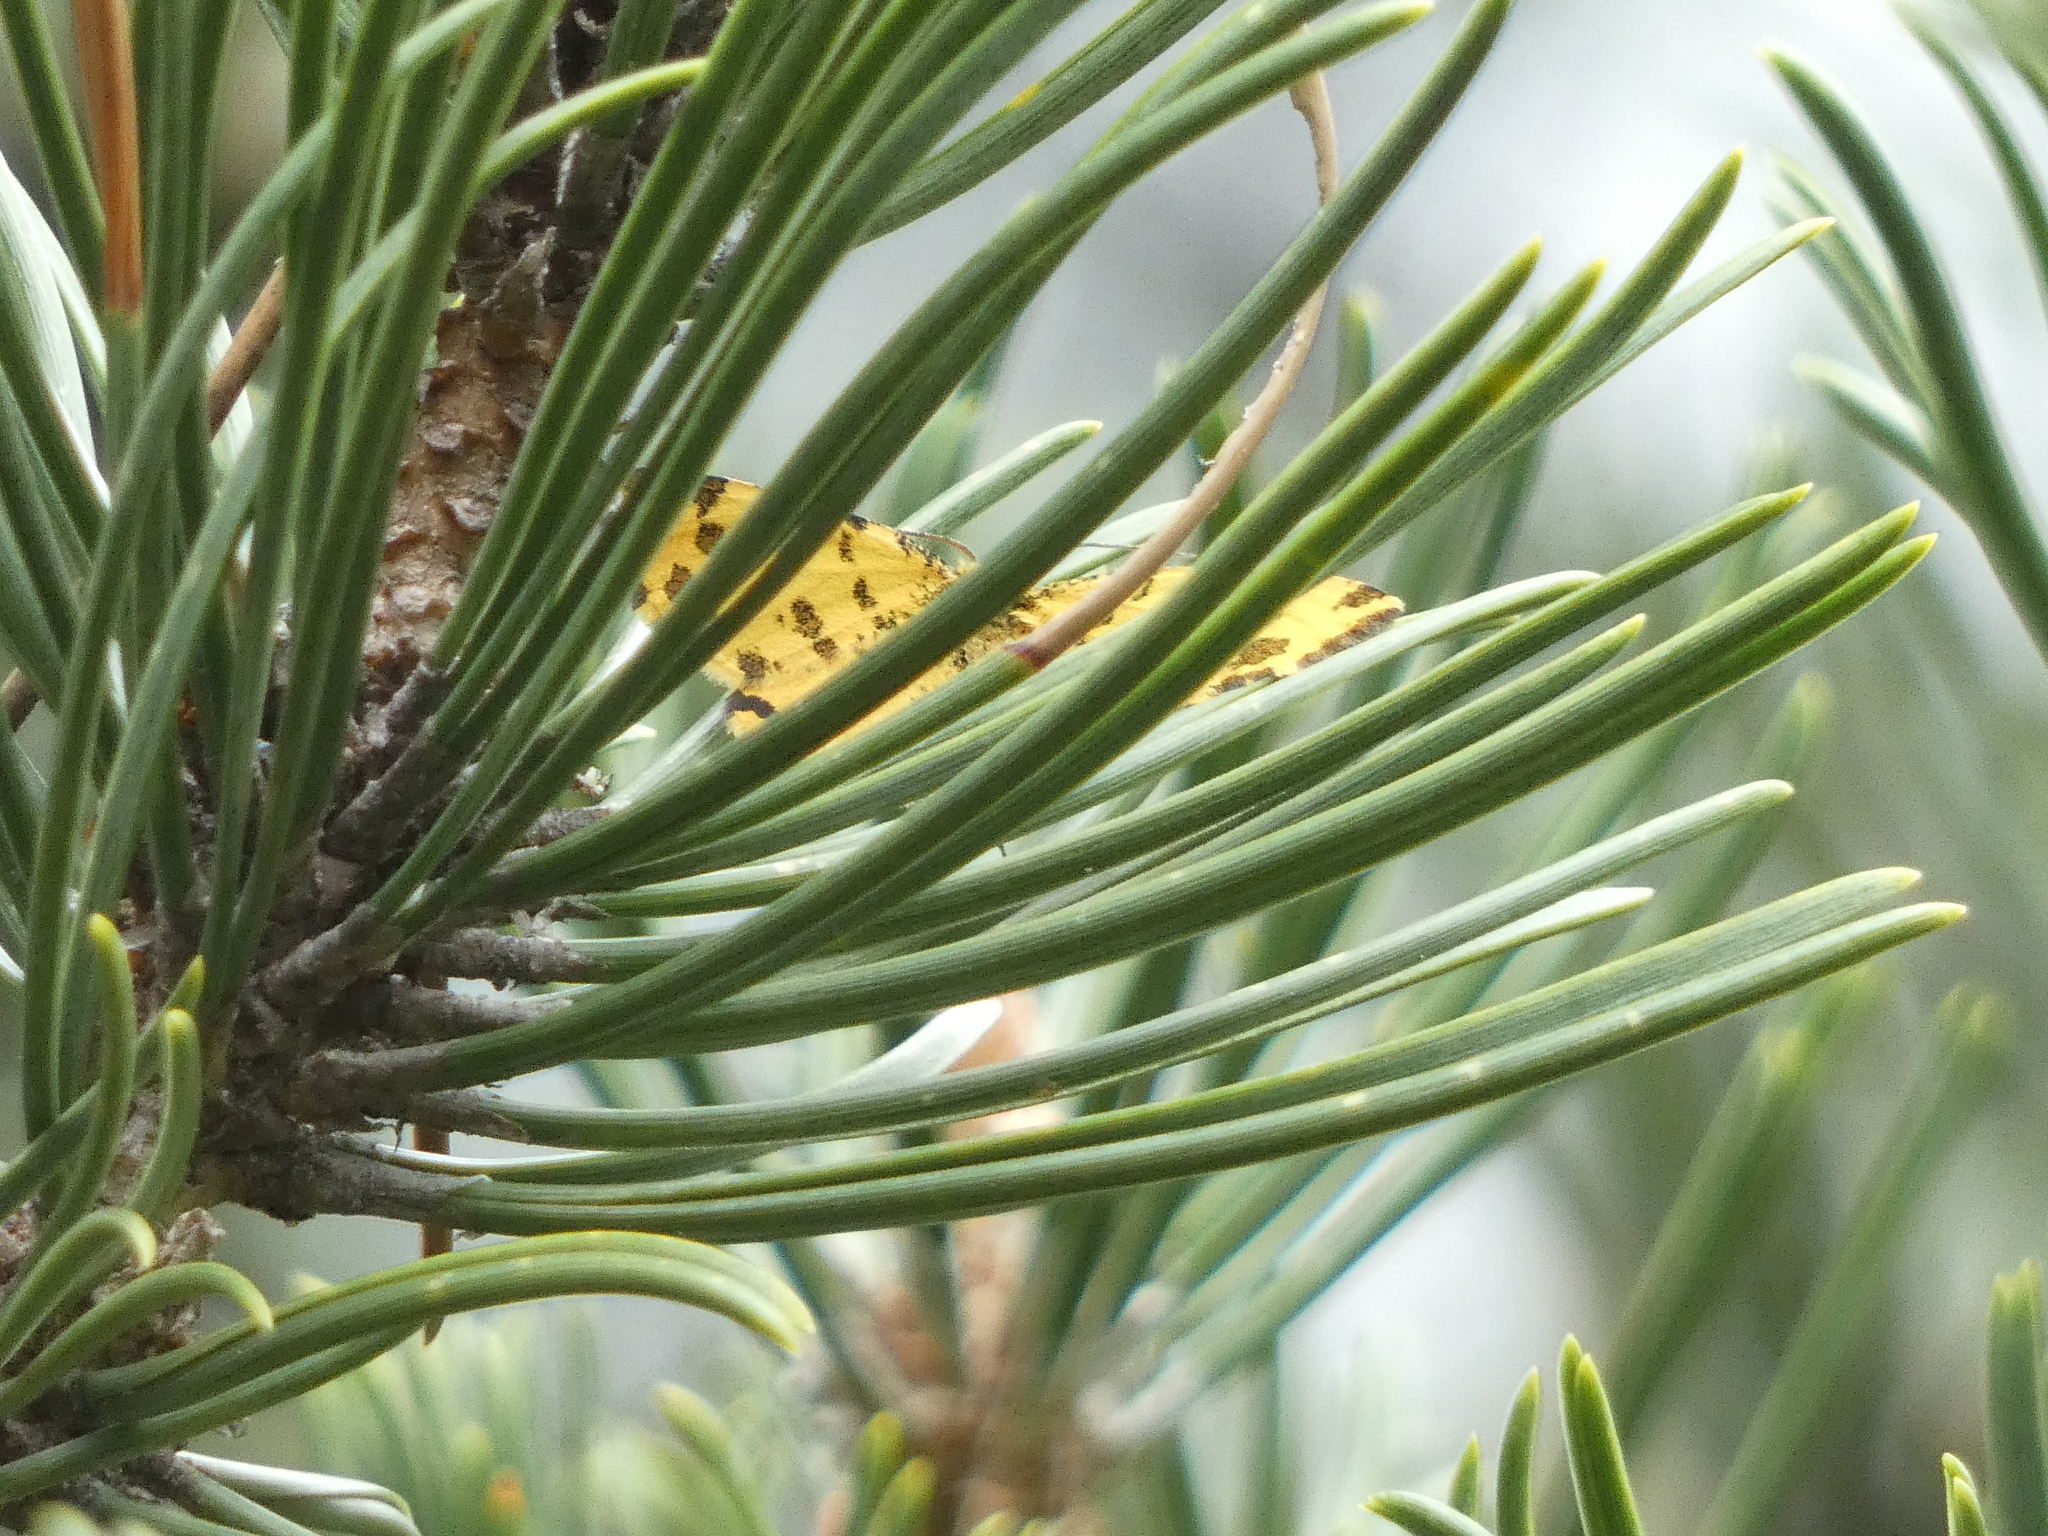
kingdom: Animalia
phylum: Arthropoda
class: Insecta
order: Lepidoptera
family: Geometridae
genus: Pseudopanthera
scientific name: Pseudopanthera macularia
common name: Speckled yellow
